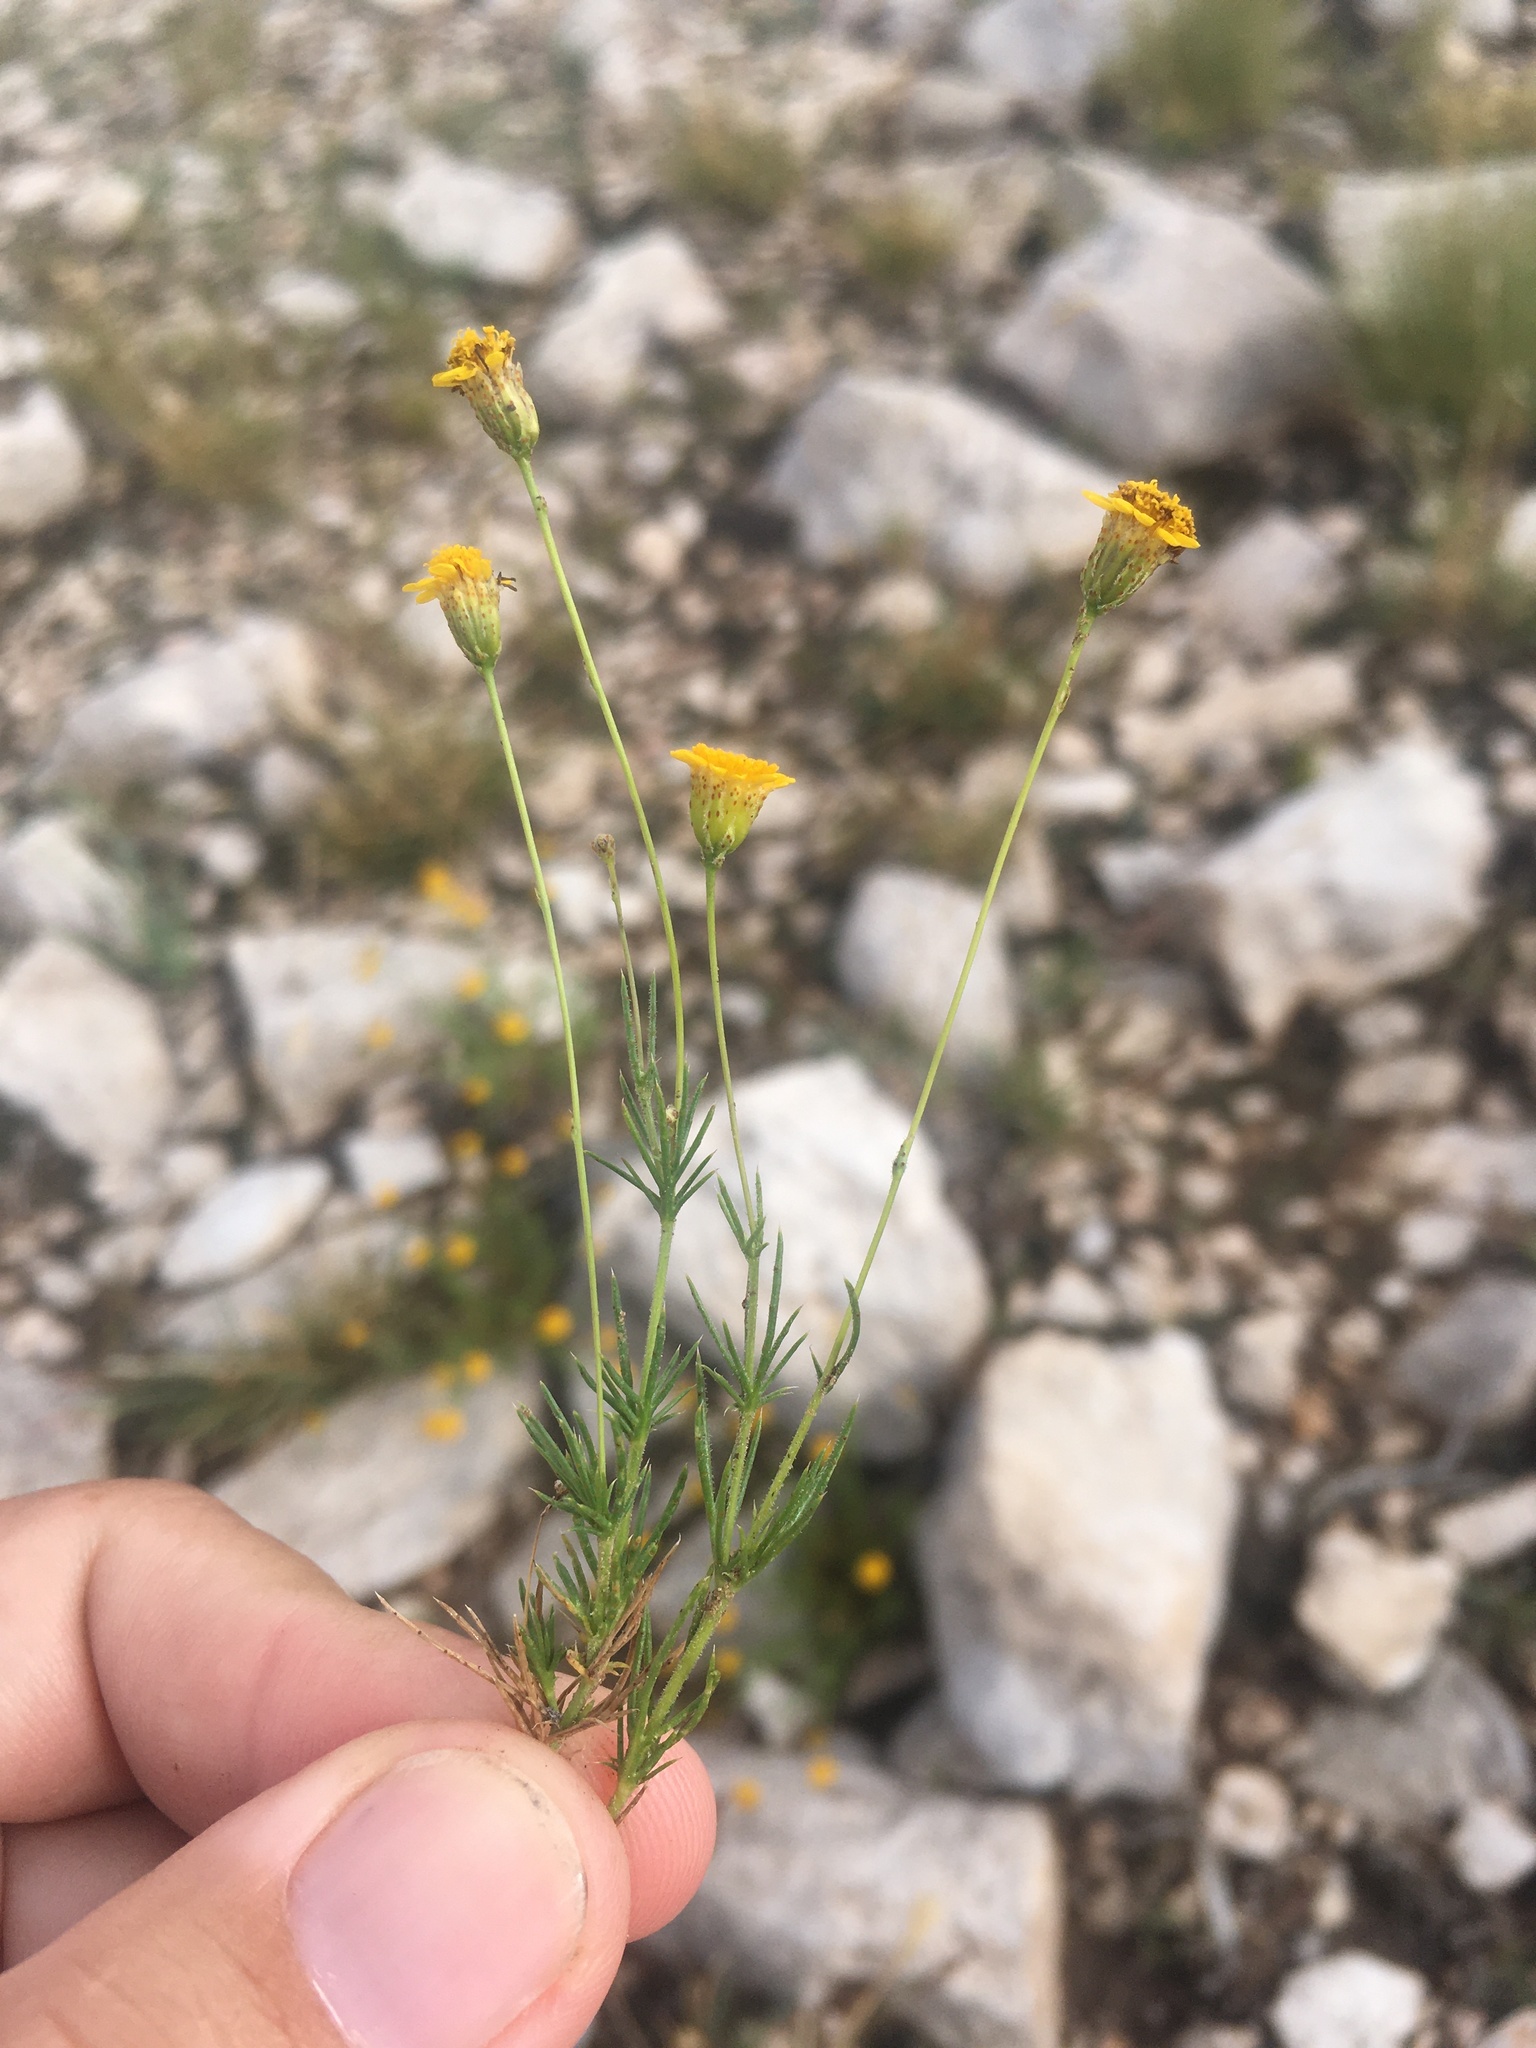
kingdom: Plantae
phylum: Tracheophyta
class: Magnoliopsida
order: Asterales
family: Asteraceae
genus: Thymophylla
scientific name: Thymophylla pentachaeta
